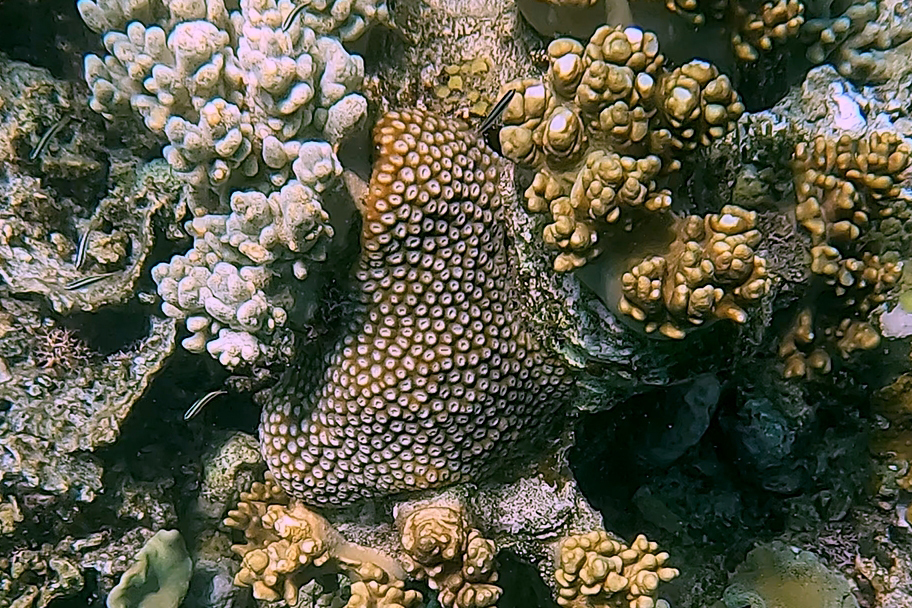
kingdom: Animalia
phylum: Cnidaria
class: Anthozoa
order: Scleractinia
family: Diploastraeidae
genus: Diploastrea
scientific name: Diploastrea heliopora
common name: Double-star coral
